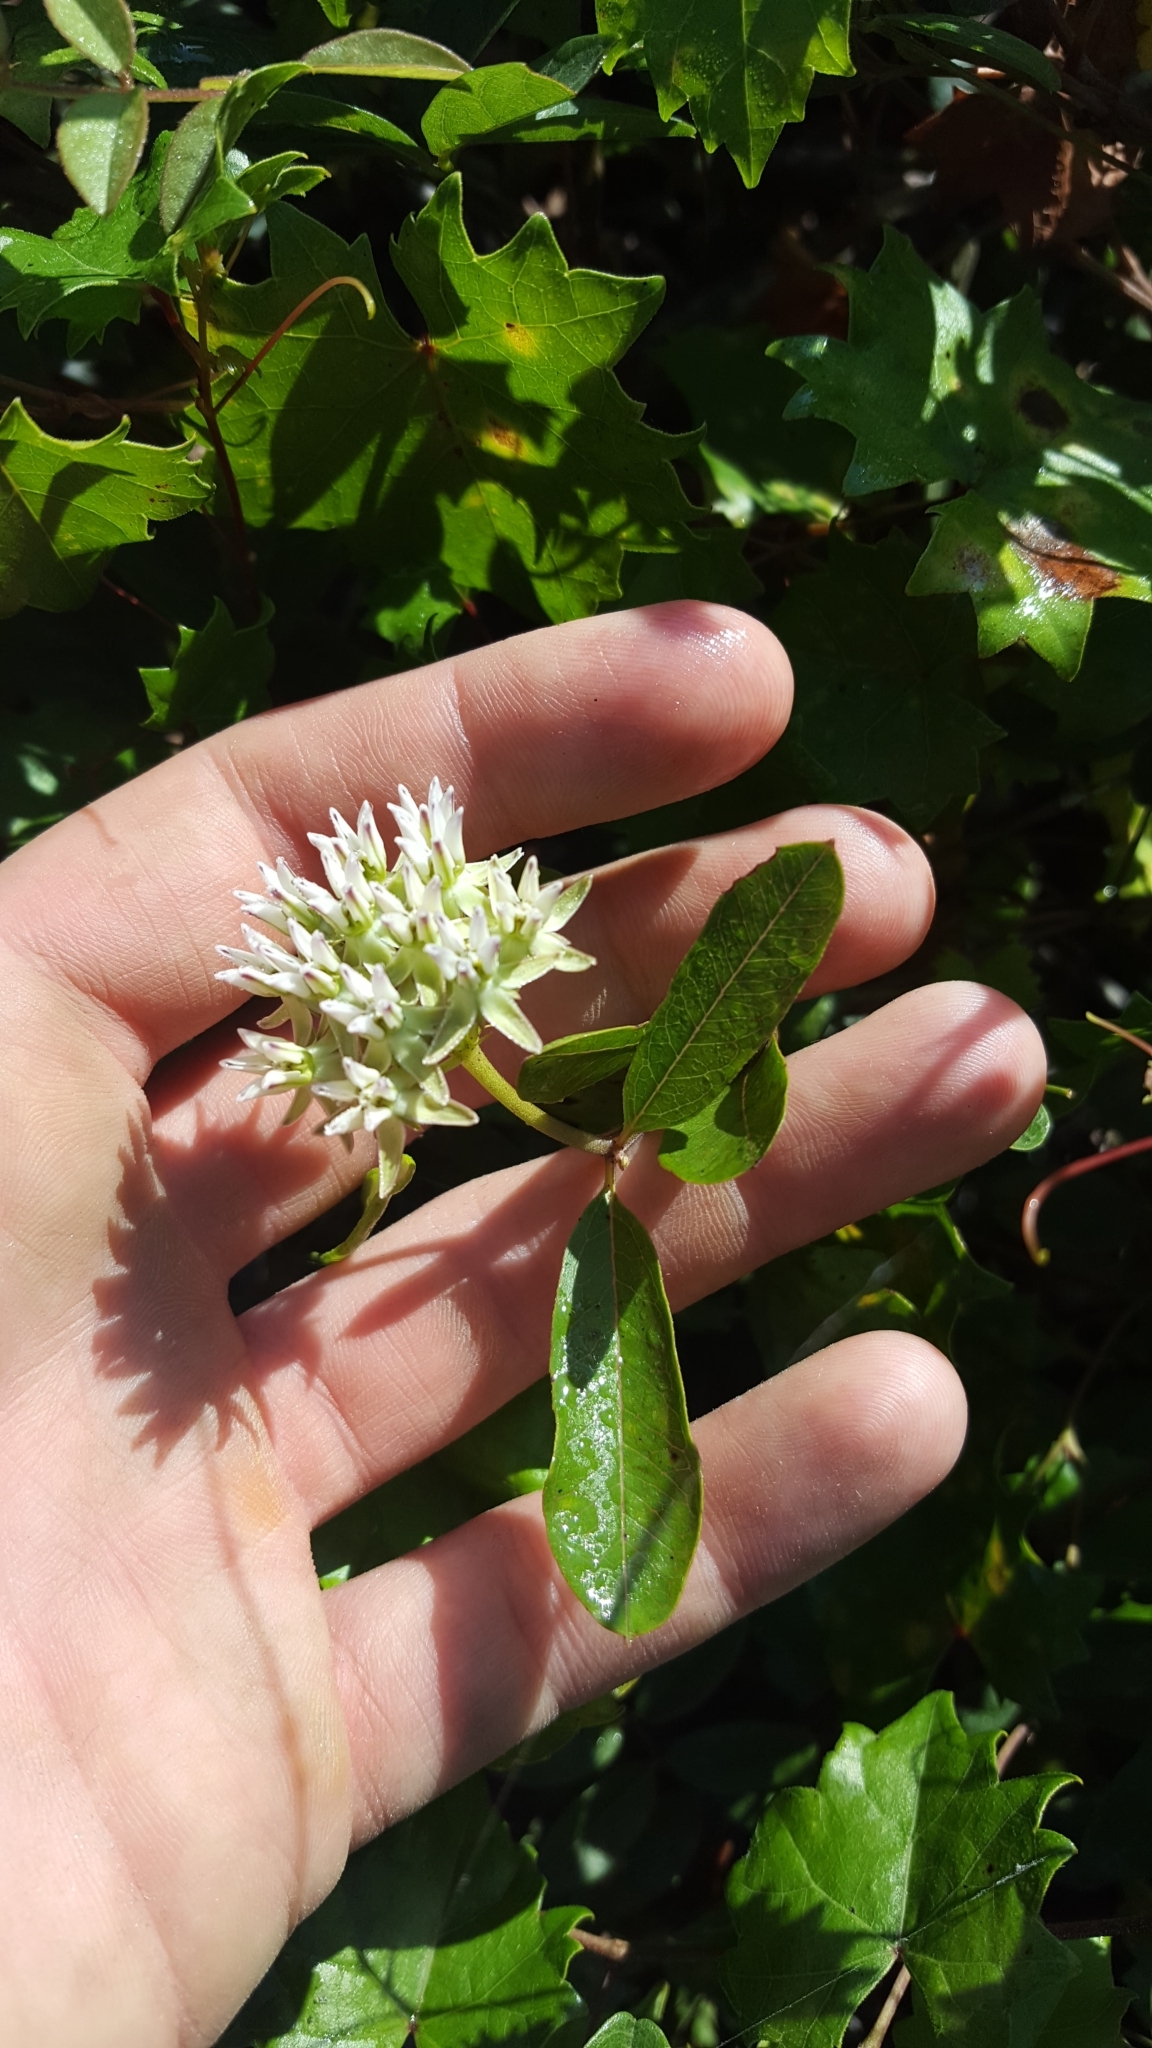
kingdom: Plantae
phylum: Tracheophyta
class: Magnoliopsida
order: Gentianales
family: Apocynaceae
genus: Asclepias
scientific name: Asclepias curtissii
